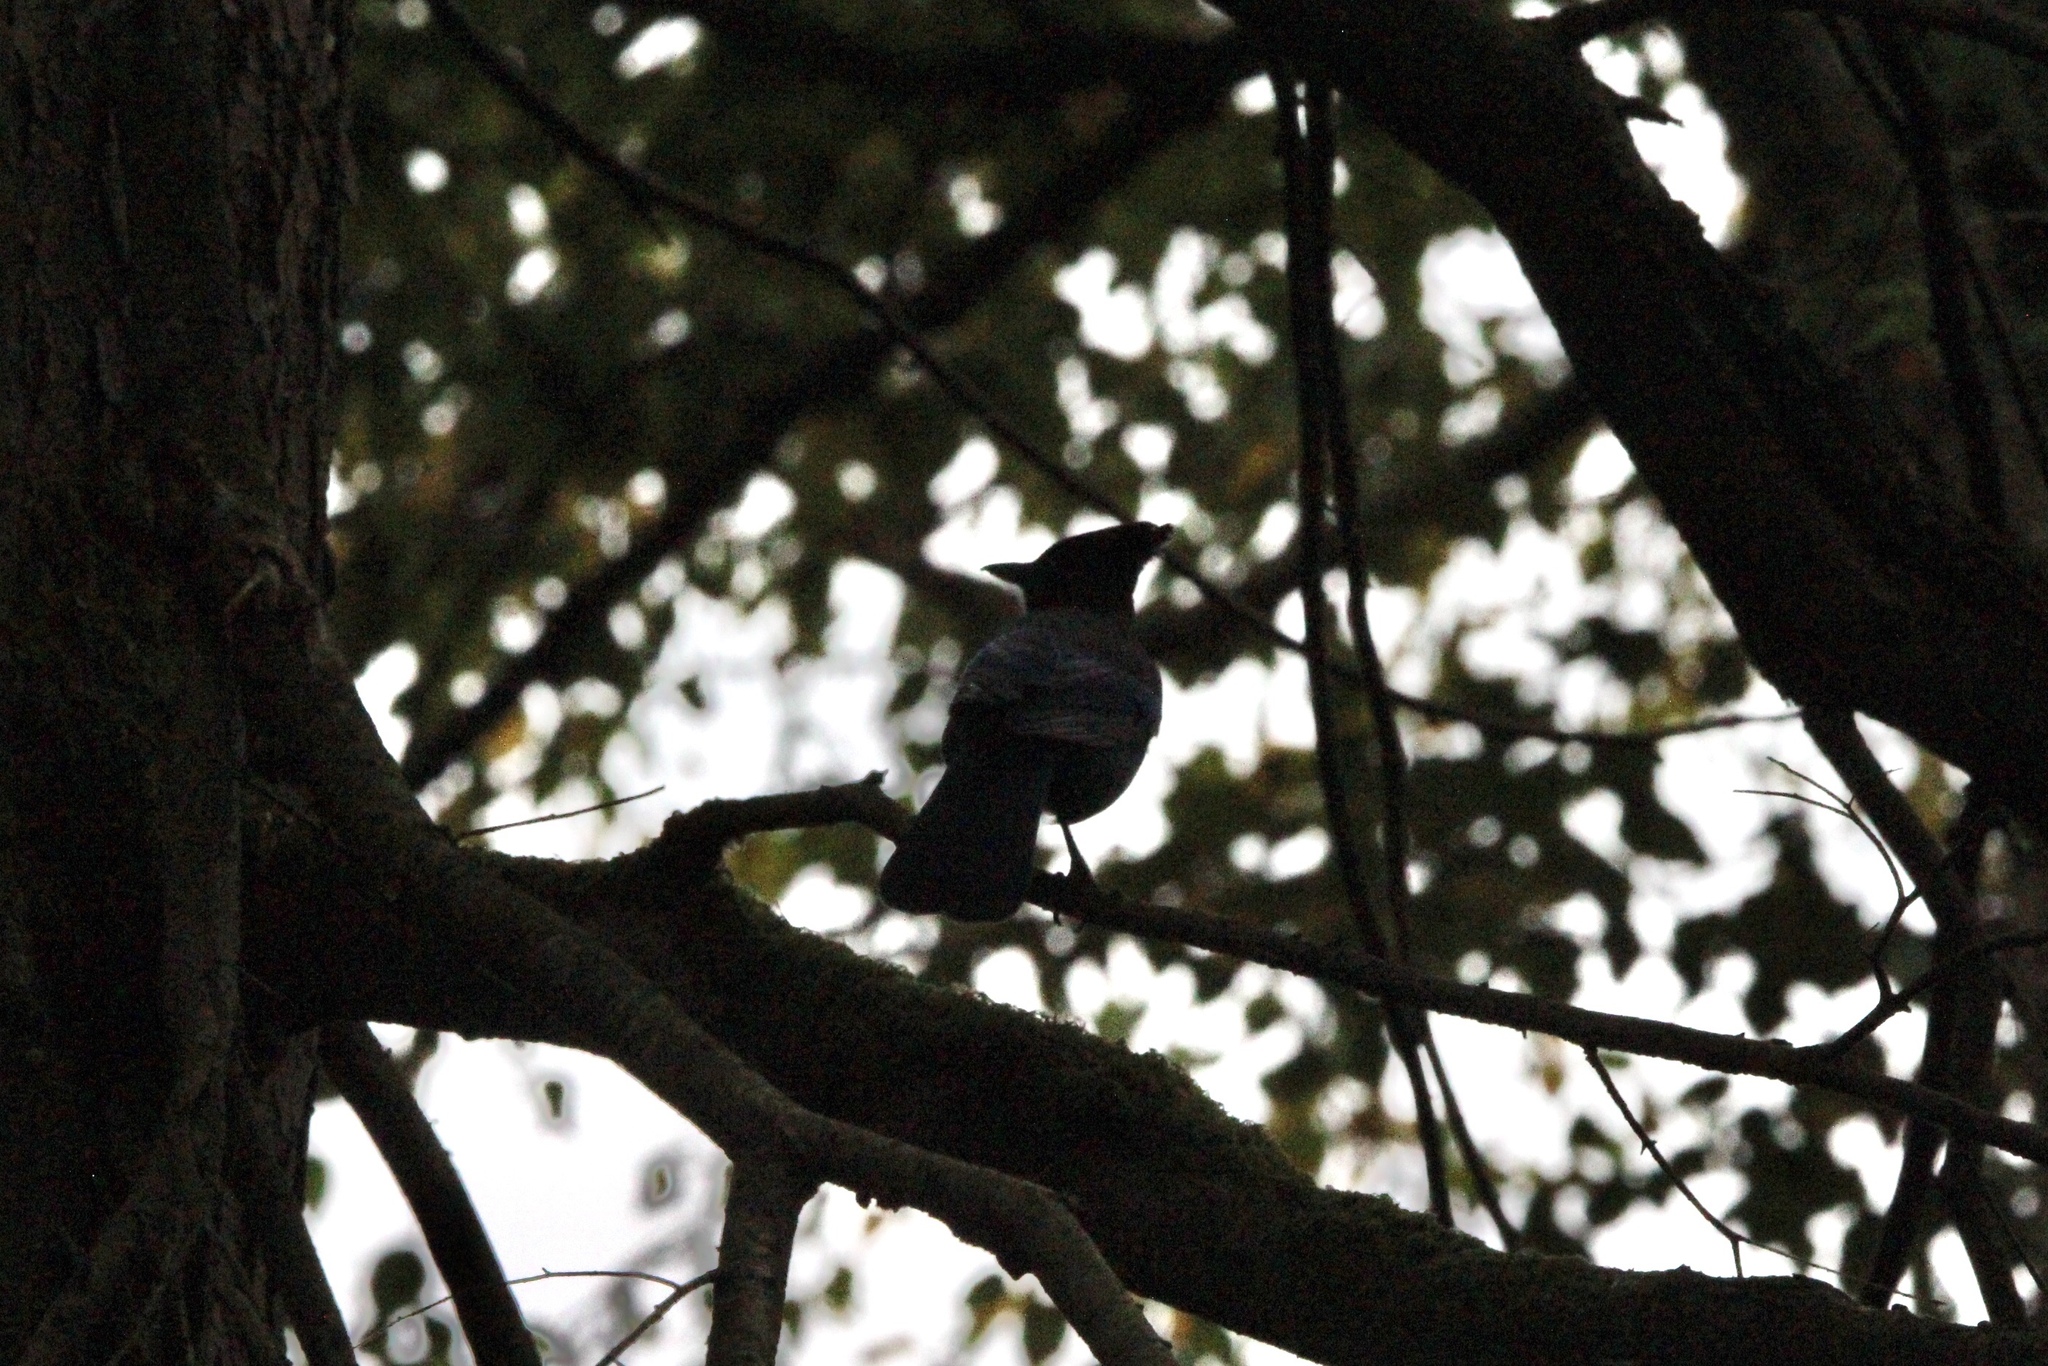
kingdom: Animalia
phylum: Chordata
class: Aves
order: Passeriformes
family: Corvidae
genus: Cyanocitta
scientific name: Cyanocitta stelleri
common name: Steller's jay
